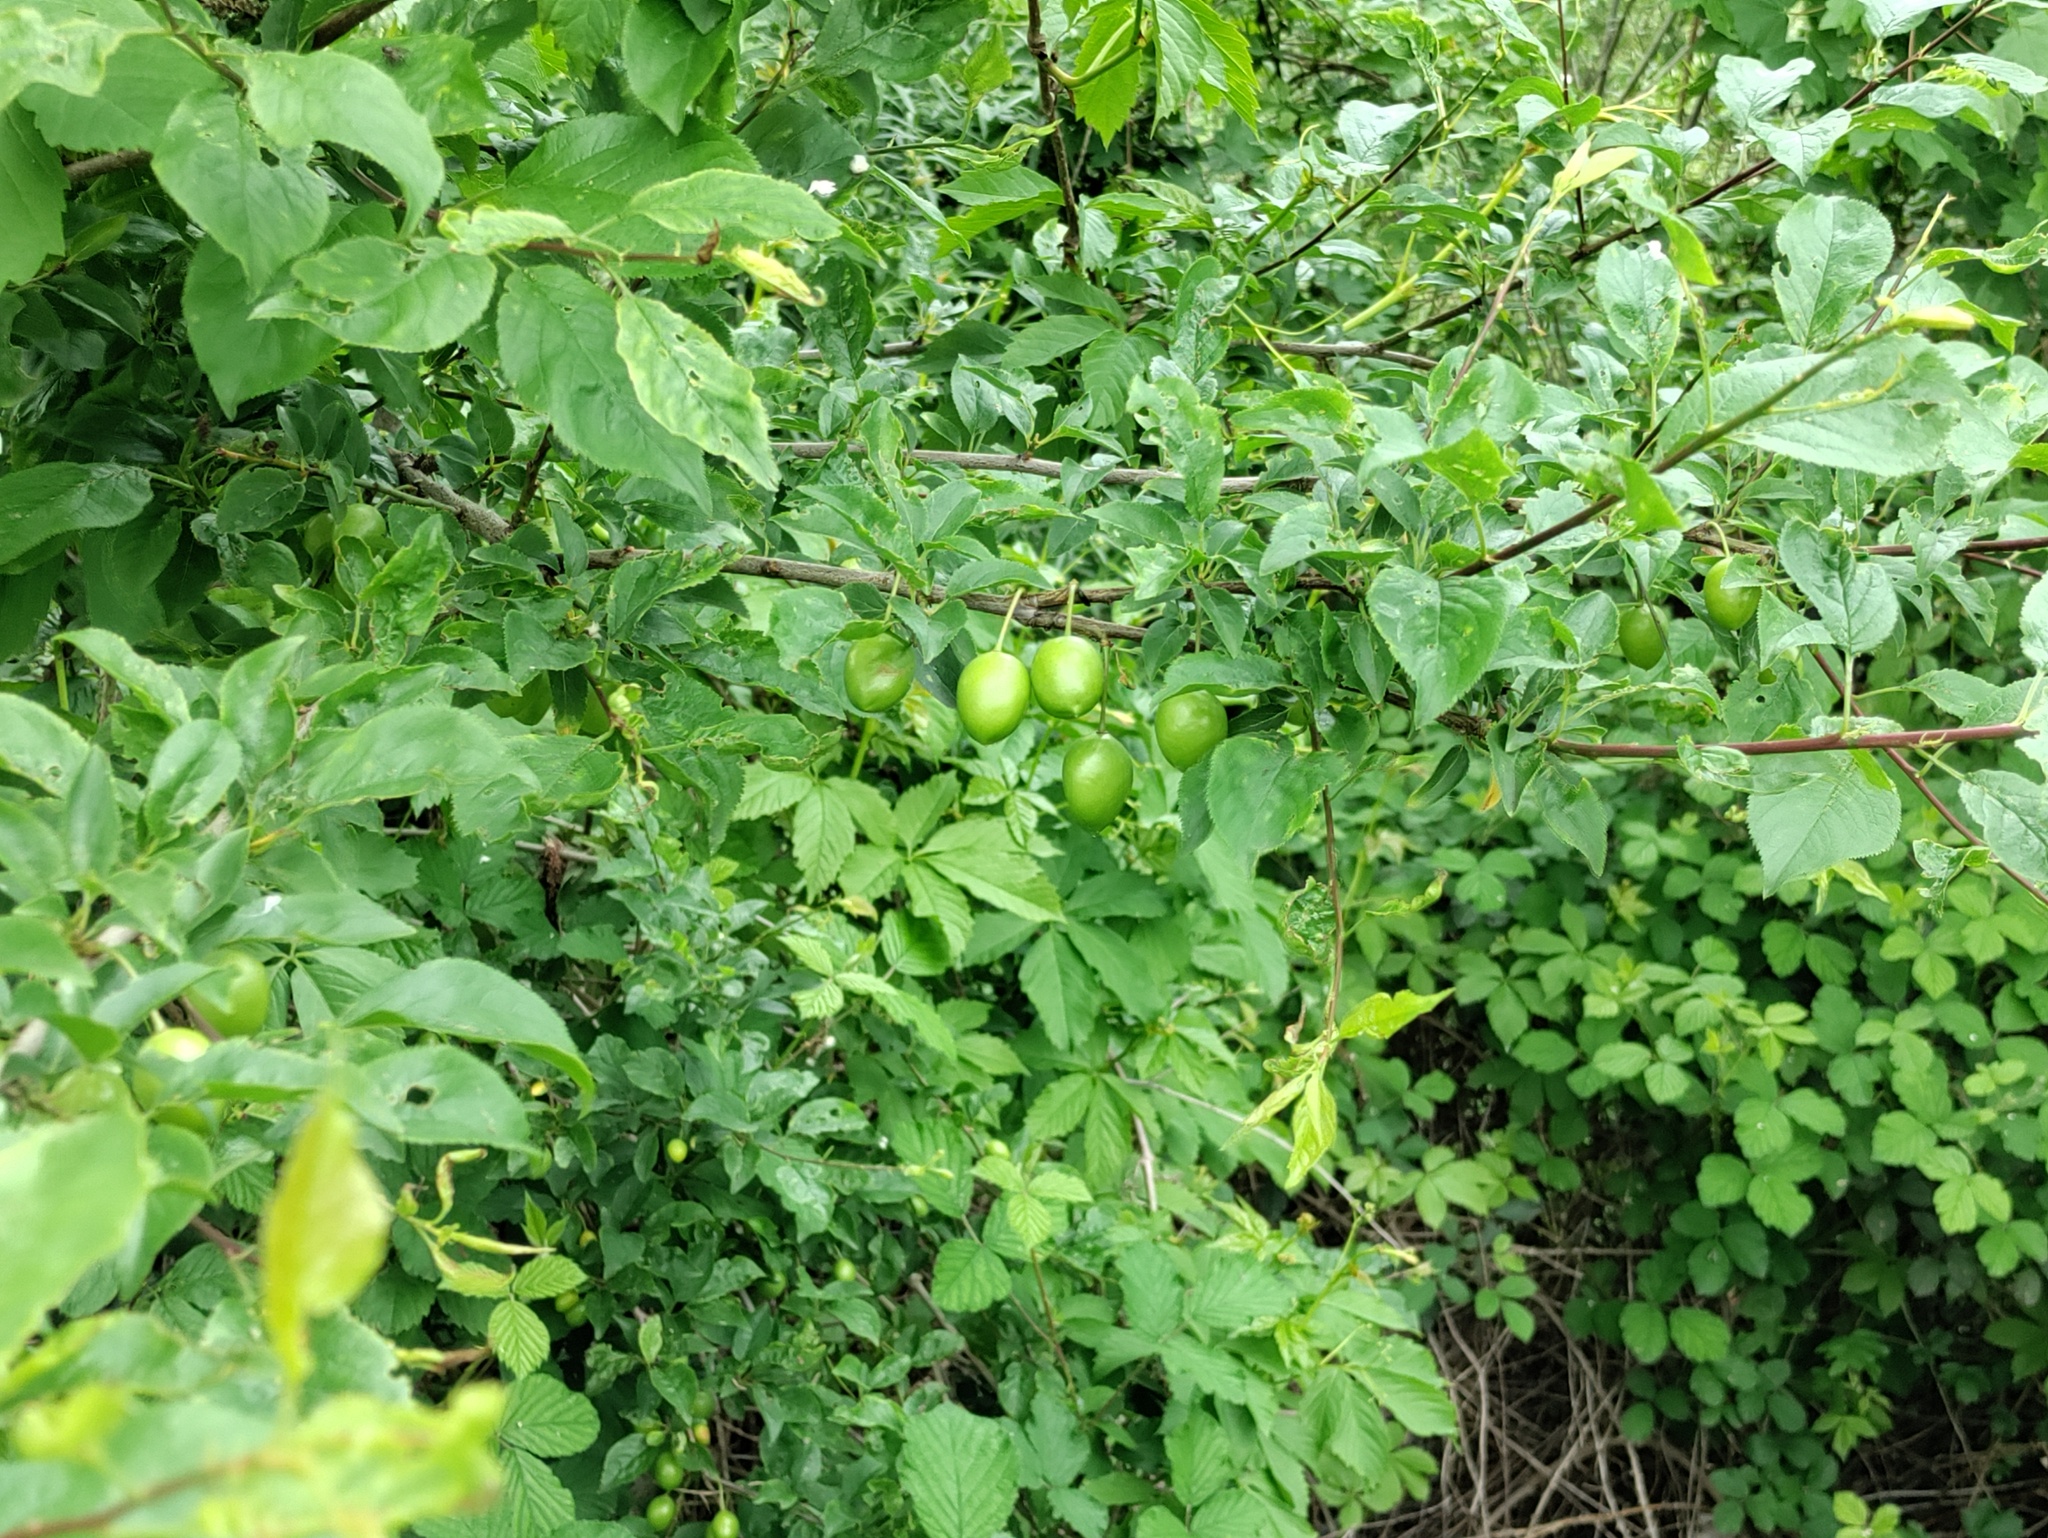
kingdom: Plantae
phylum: Tracheophyta
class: Magnoliopsida
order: Rosales
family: Rosaceae
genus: Prunus
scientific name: Prunus cerasifera
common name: Cherry plum
